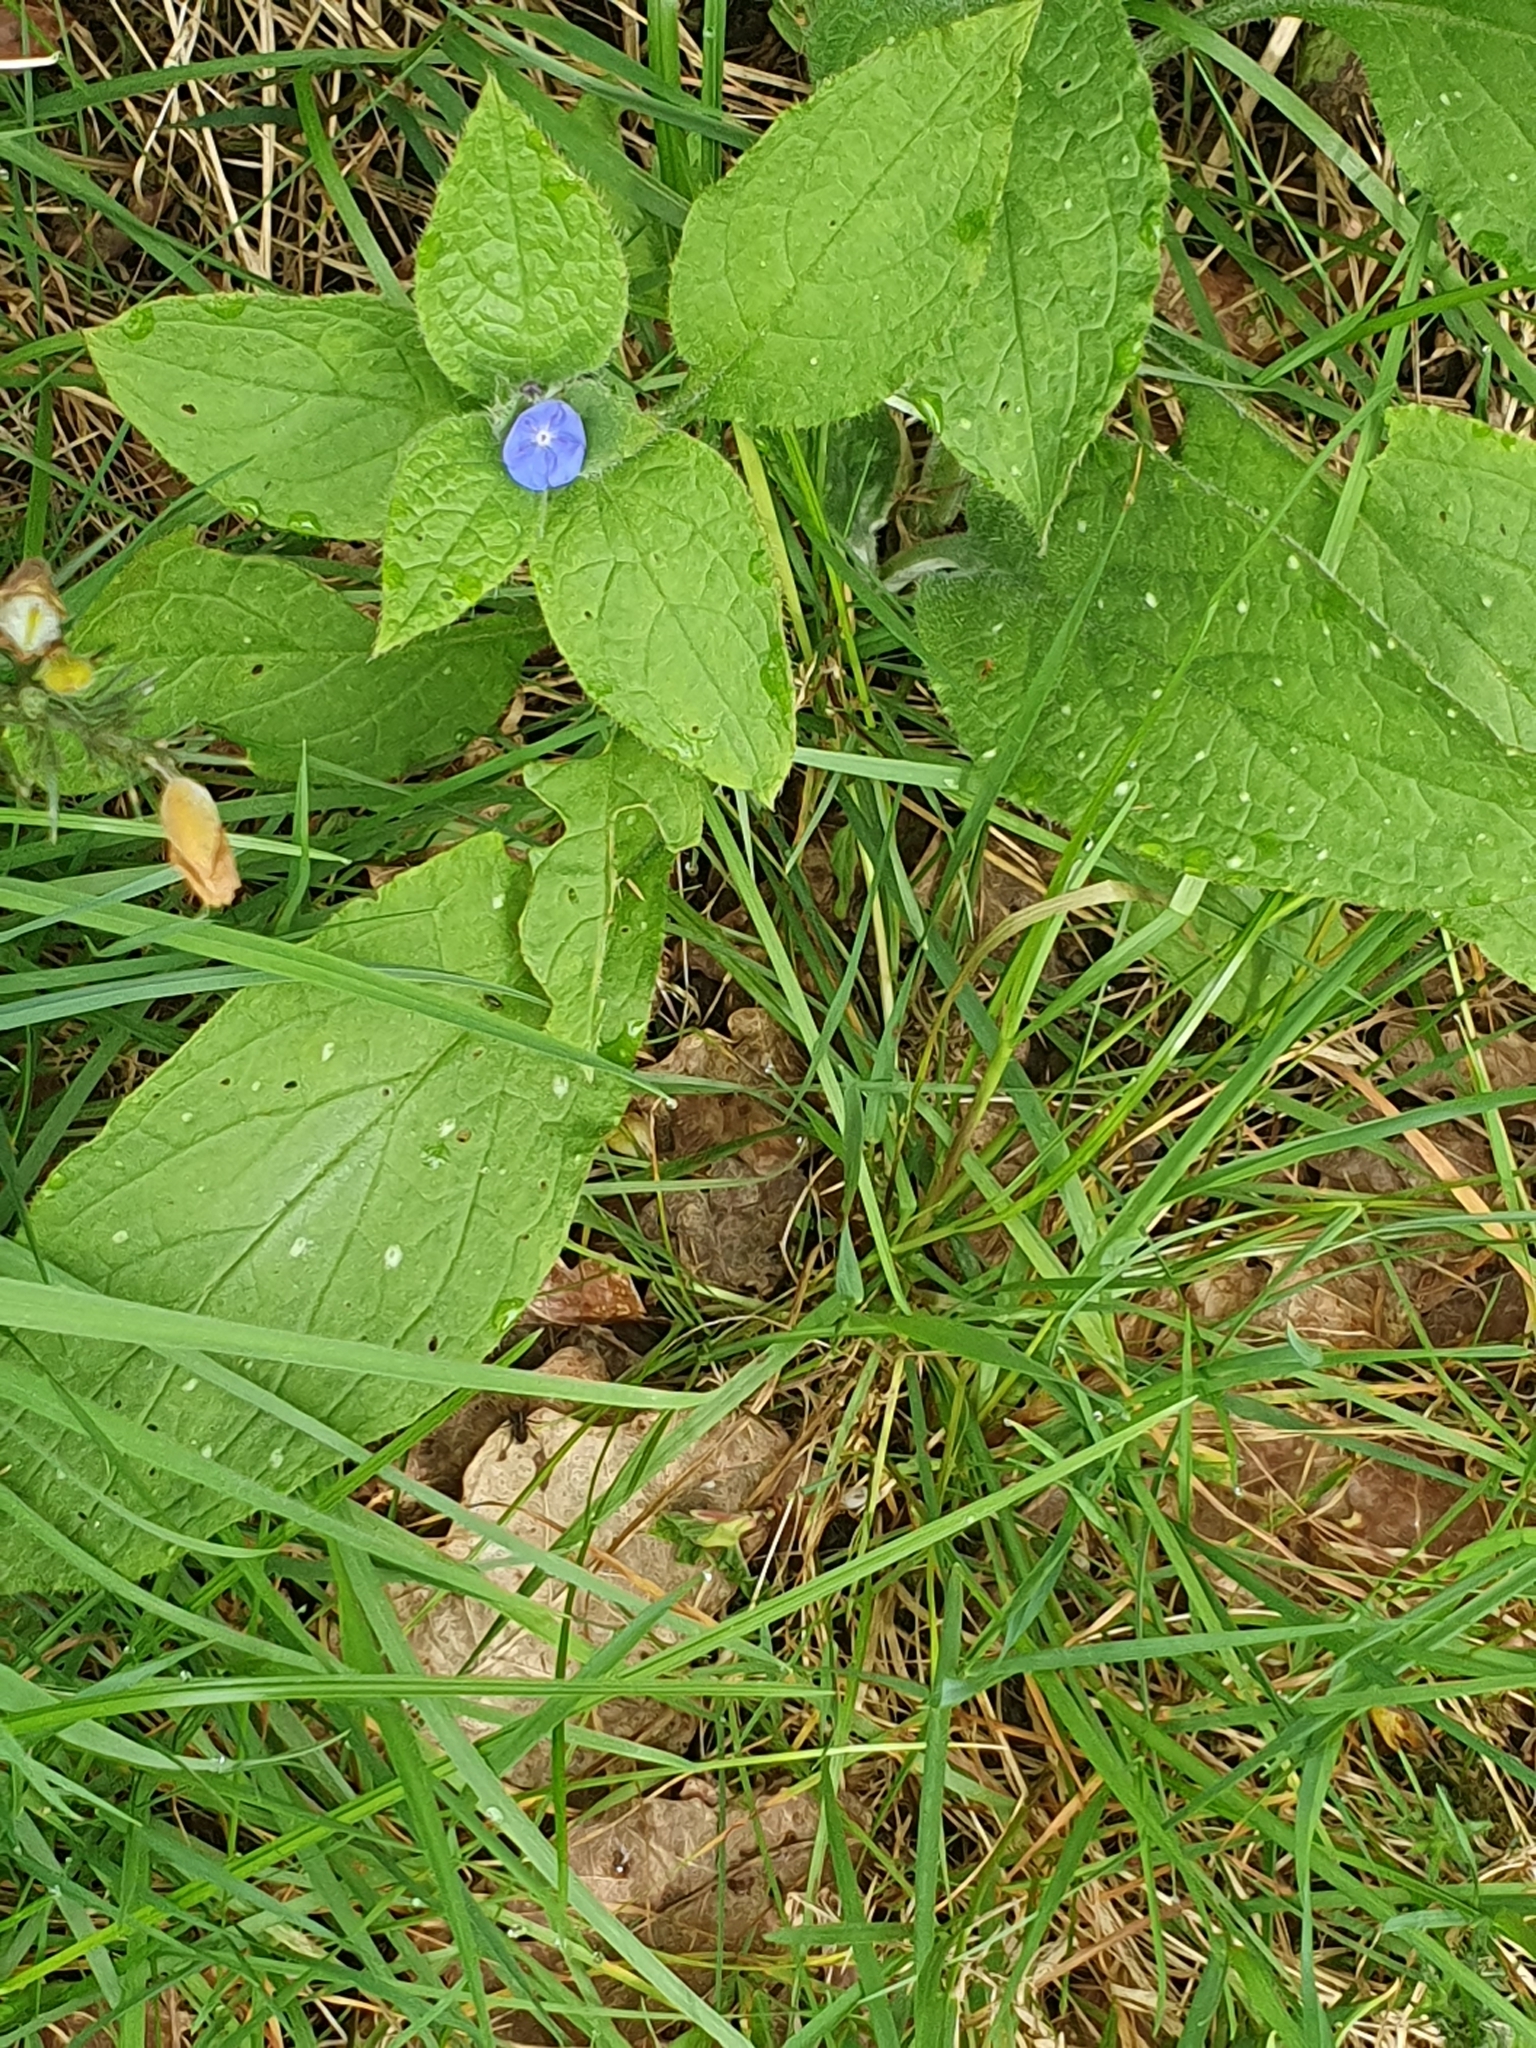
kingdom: Plantae
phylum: Tracheophyta
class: Magnoliopsida
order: Boraginales
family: Boraginaceae
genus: Pentaglottis
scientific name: Pentaglottis sempervirens
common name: Green alkanet
